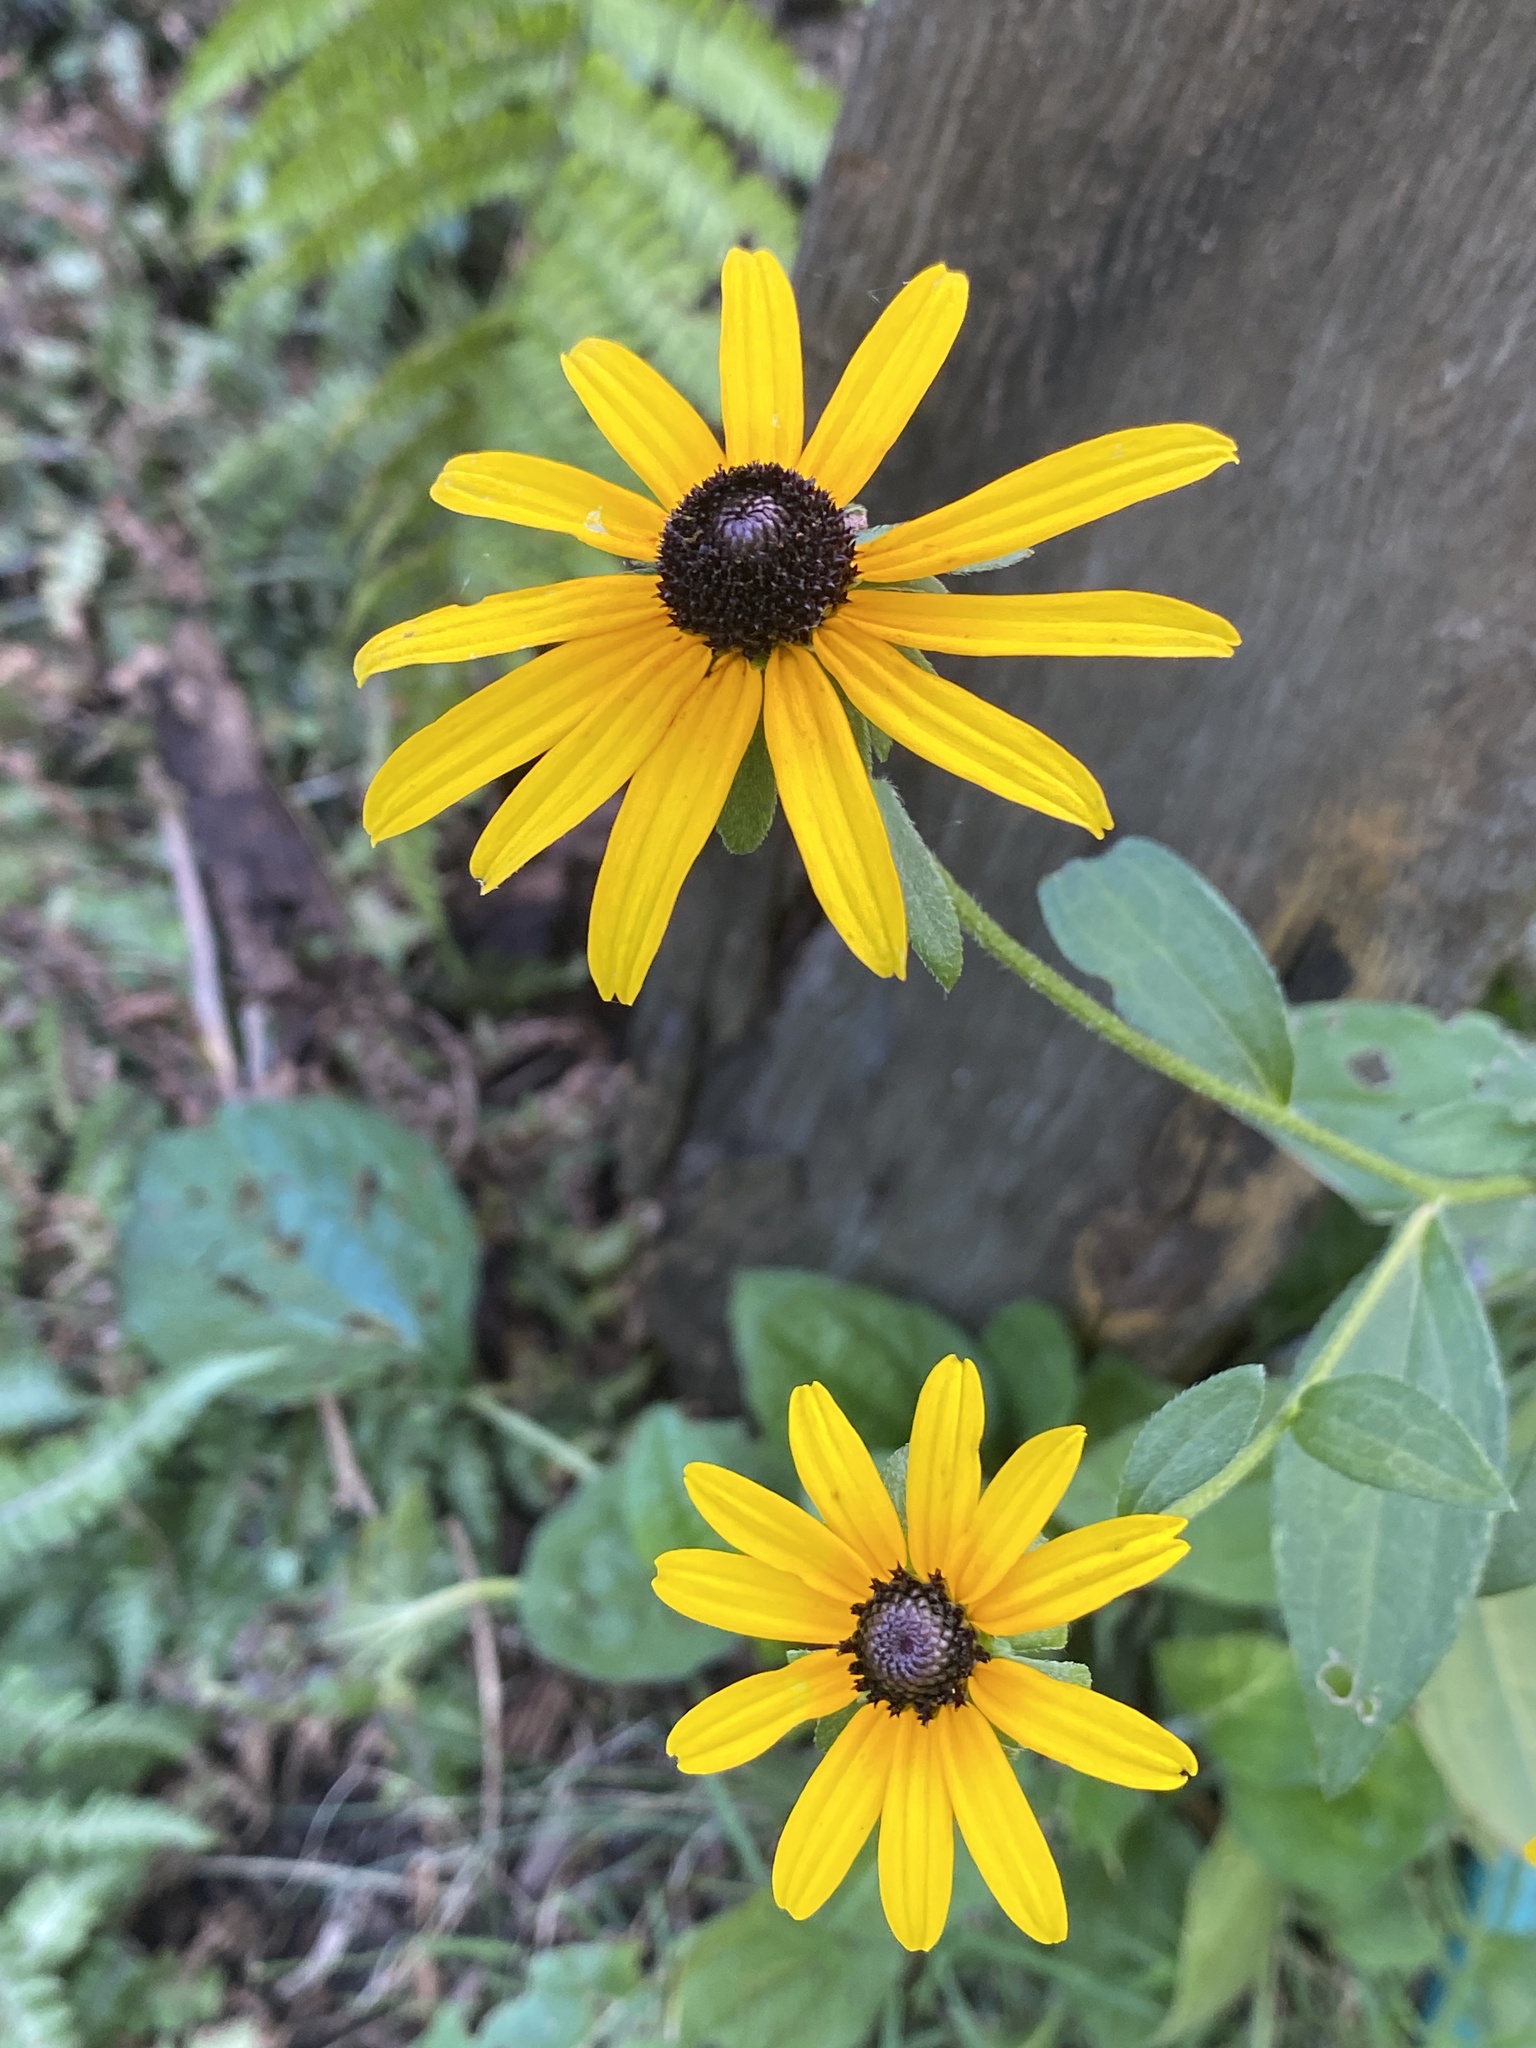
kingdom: Plantae
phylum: Tracheophyta
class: Magnoliopsida
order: Asterales
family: Asteraceae
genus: Rudbeckia
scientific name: Rudbeckia hirta
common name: Black-eyed-susan
